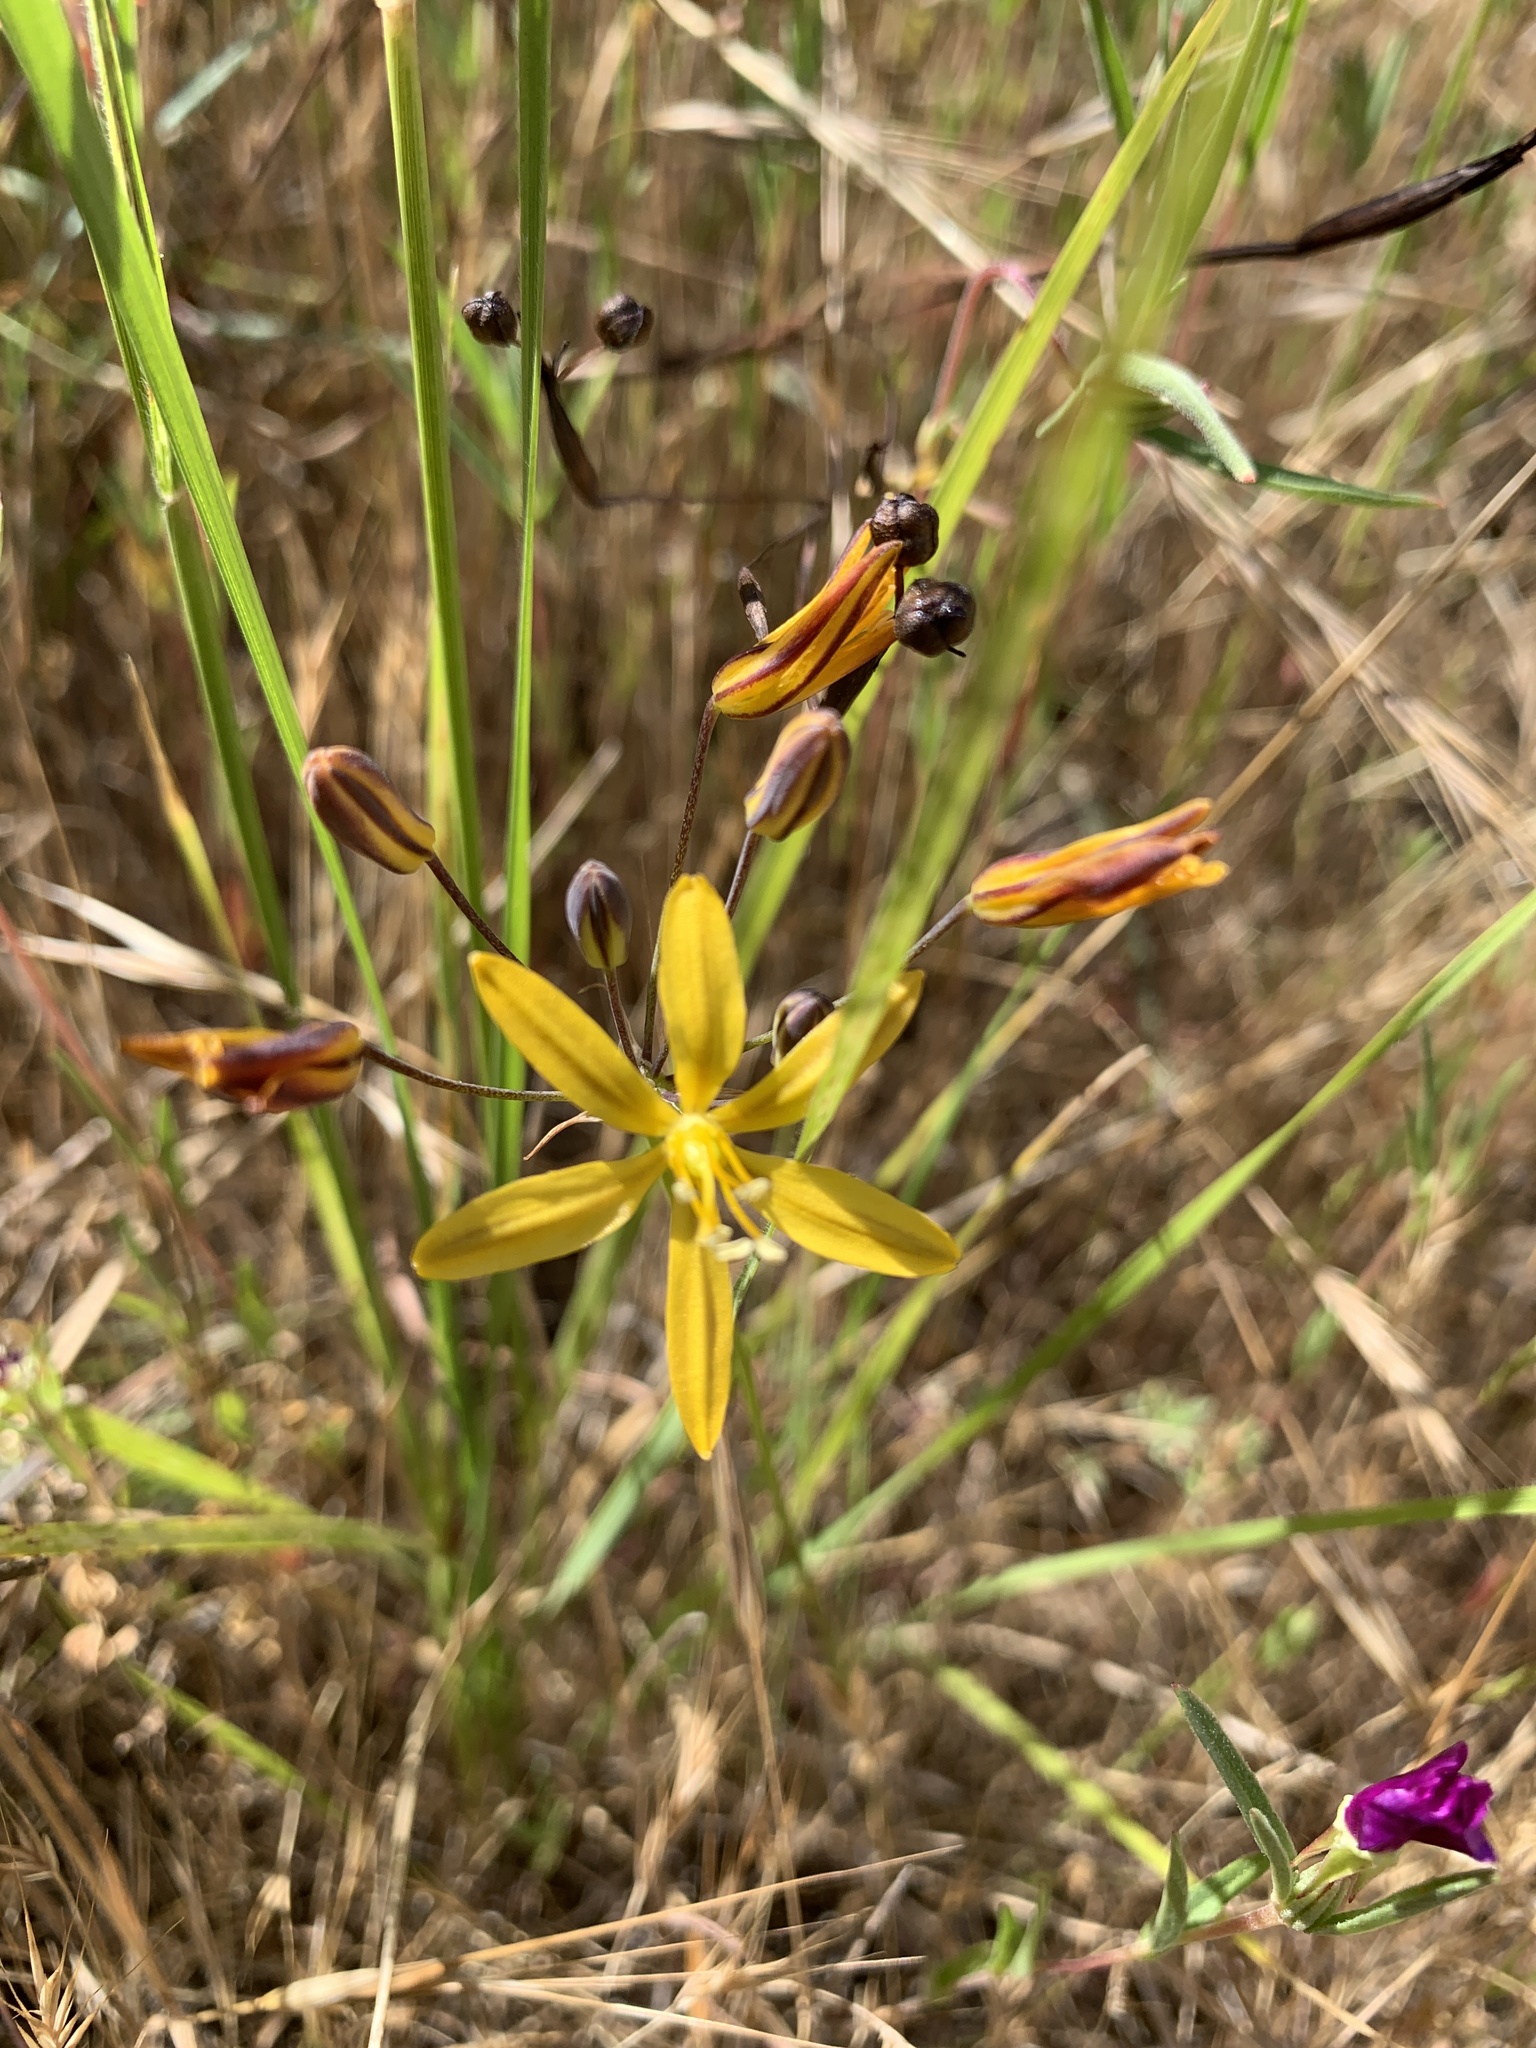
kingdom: Plantae
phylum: Tracheophyta
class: Liliopsida
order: Asparagales
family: Asparagaceae
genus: Bloomeria
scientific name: Bloomeria crocea
